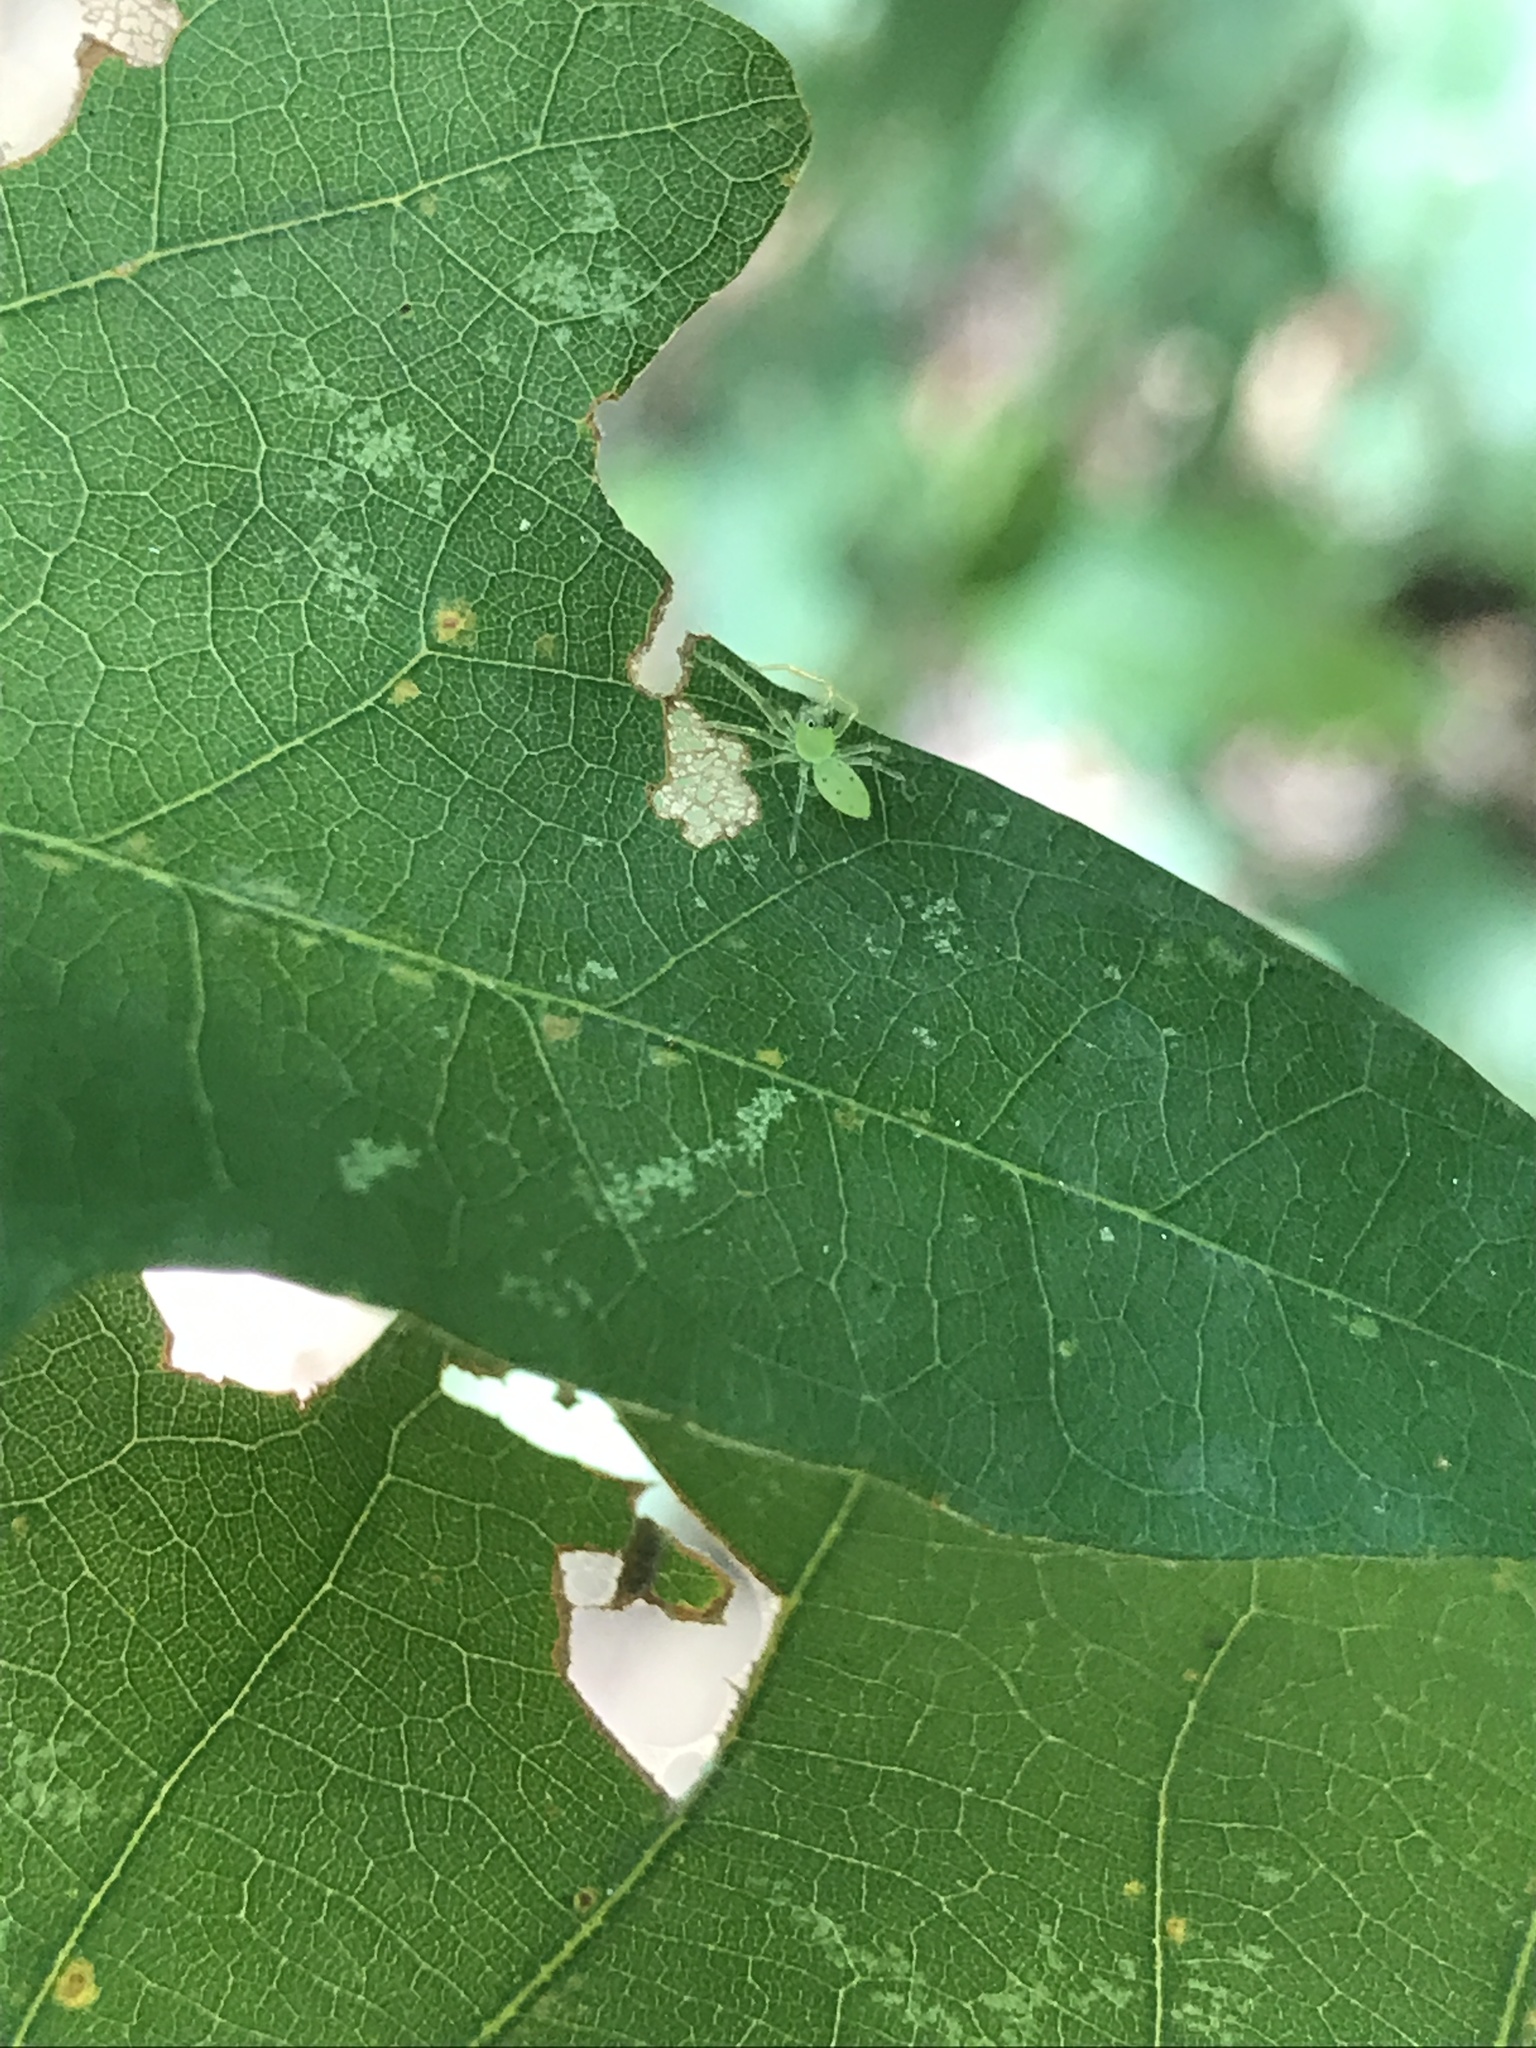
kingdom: Animalia
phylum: Arthropoda
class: Arachnida
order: Araneae
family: Salticidae
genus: Lyssomanes
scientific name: Lyssomanes viridis
